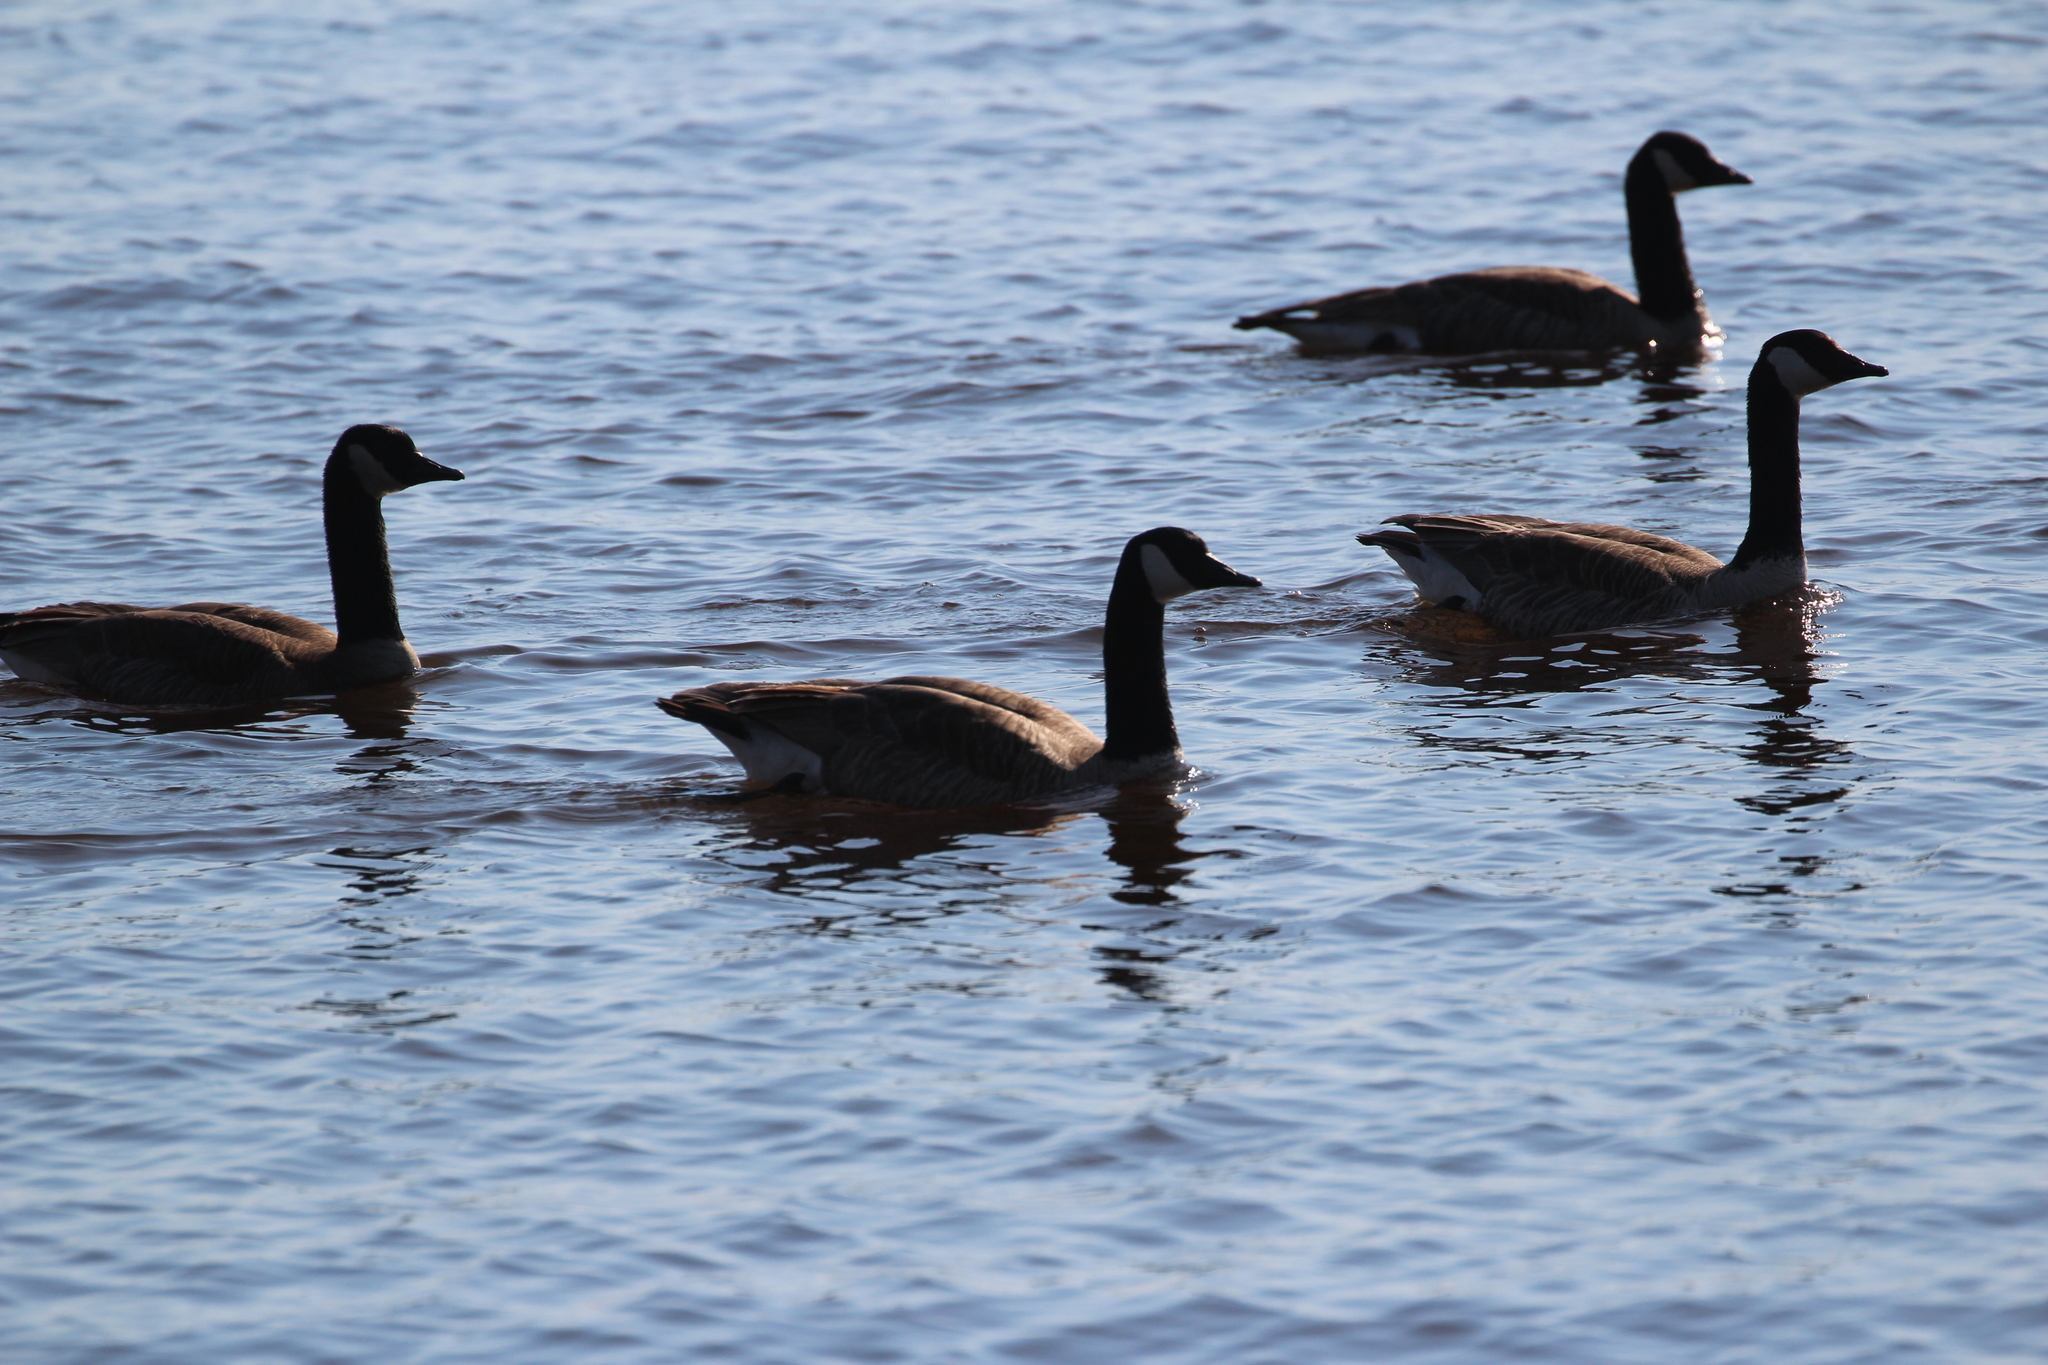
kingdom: Animalia
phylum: Chordata
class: Aves
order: Anseriformes
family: Anatidae
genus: Branta
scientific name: Branta canadensis
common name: Canada goose
